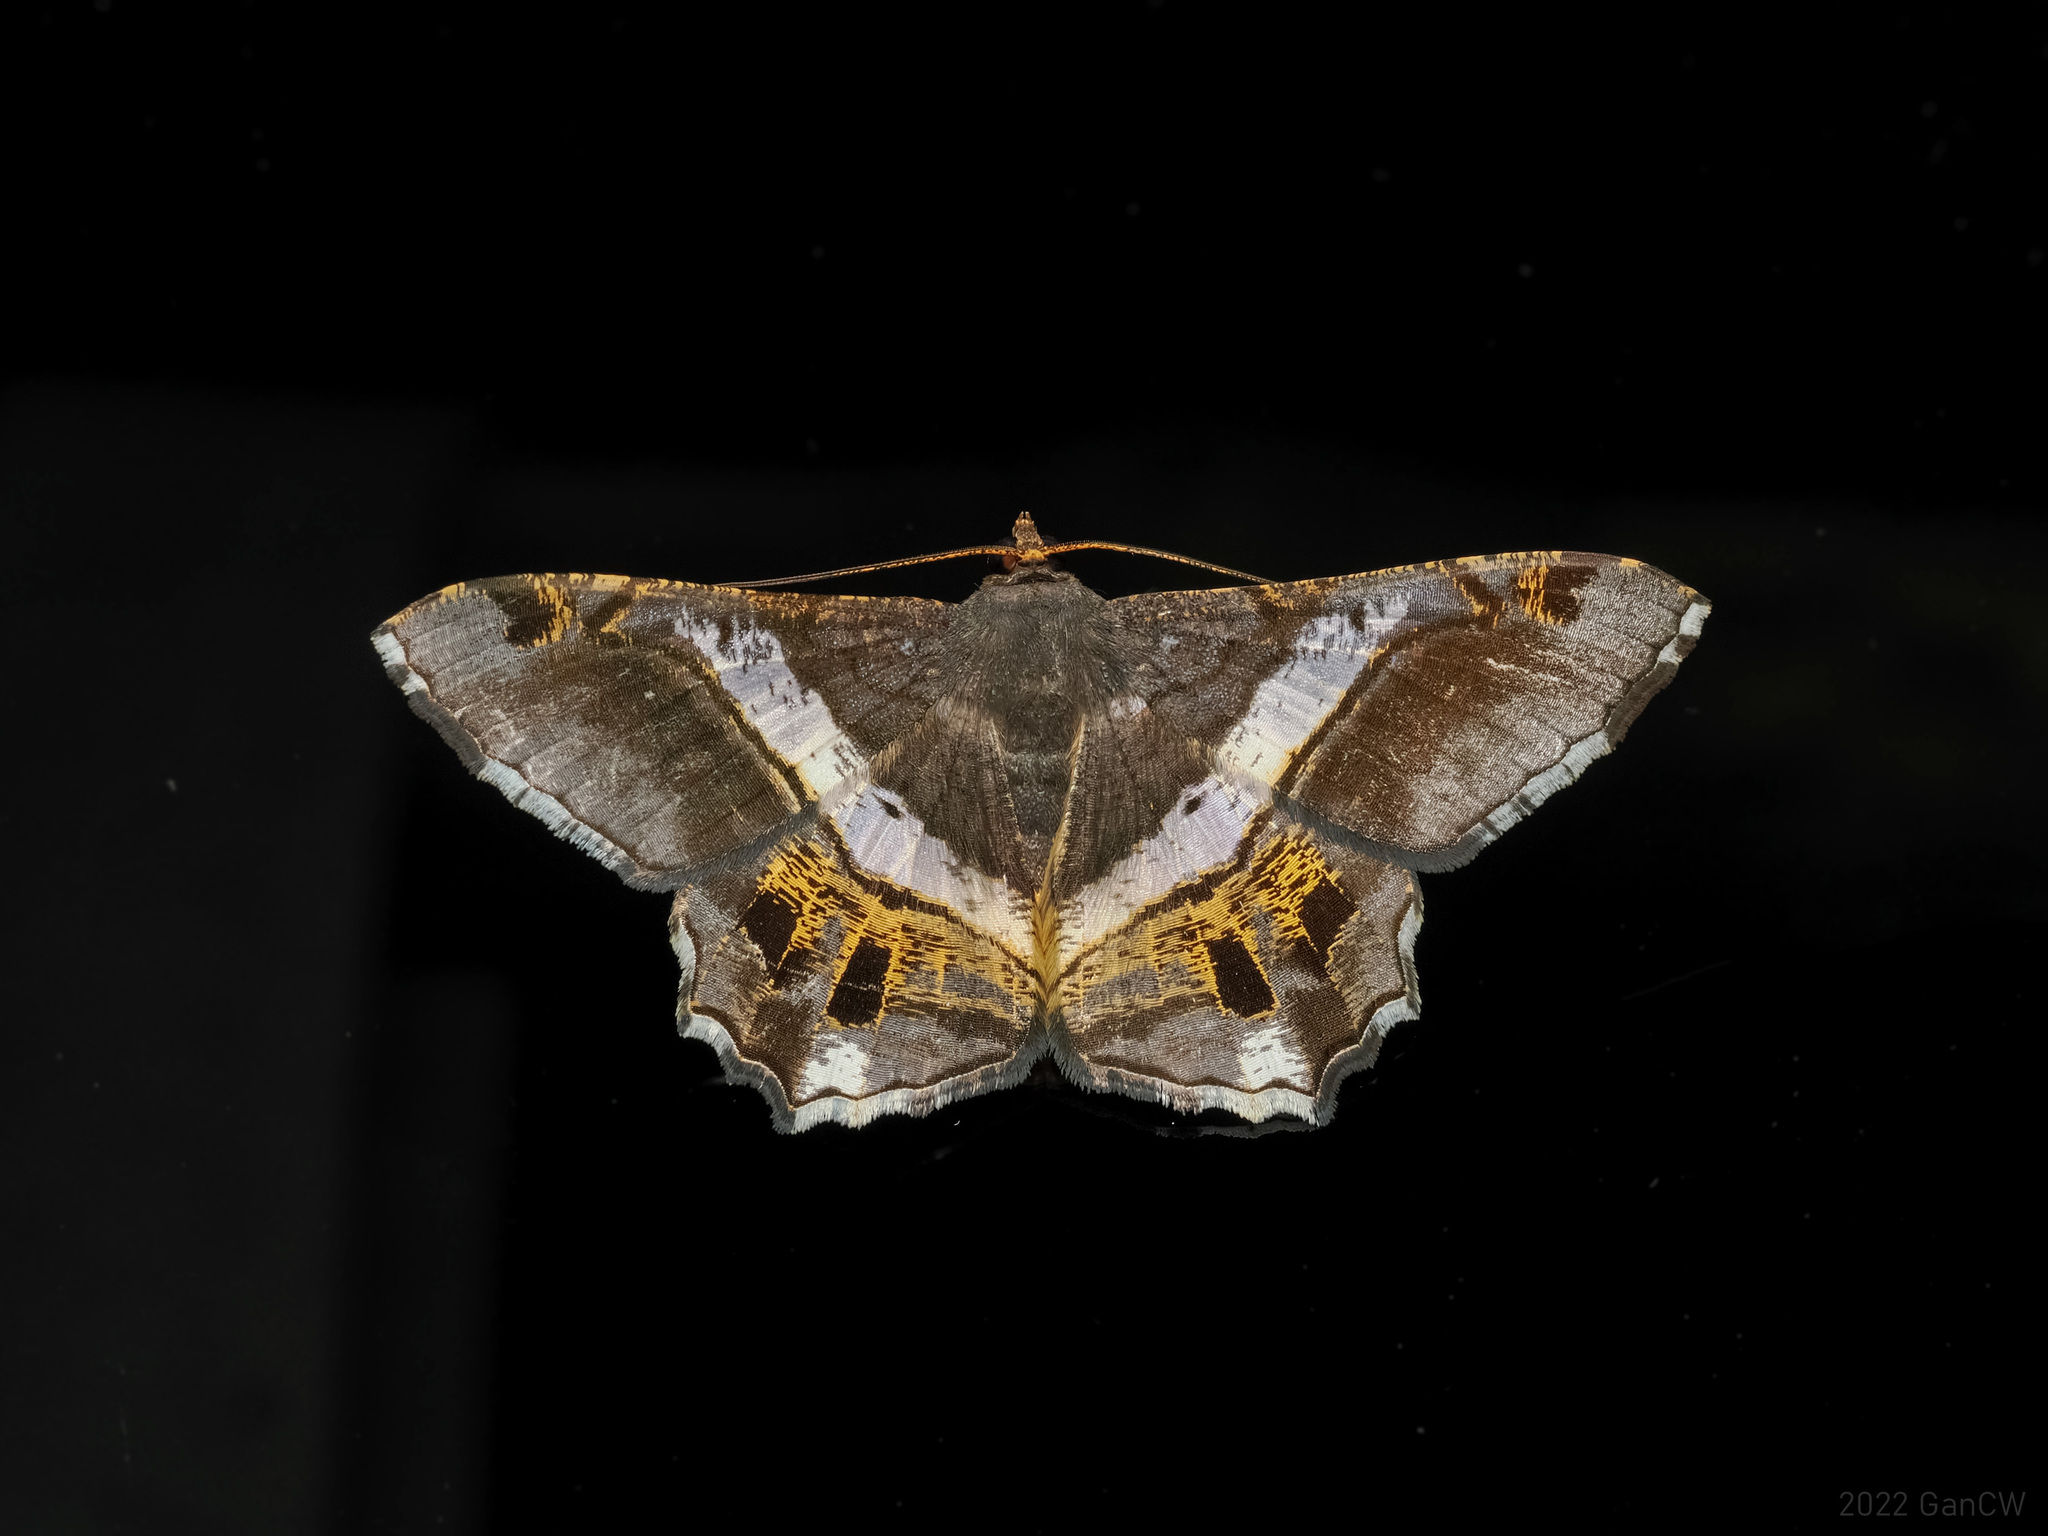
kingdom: Animalia
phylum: Arthropoda
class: Insecta
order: Lepidoptera
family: Geometridae
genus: Chiasmia
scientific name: Chiasmia nora
